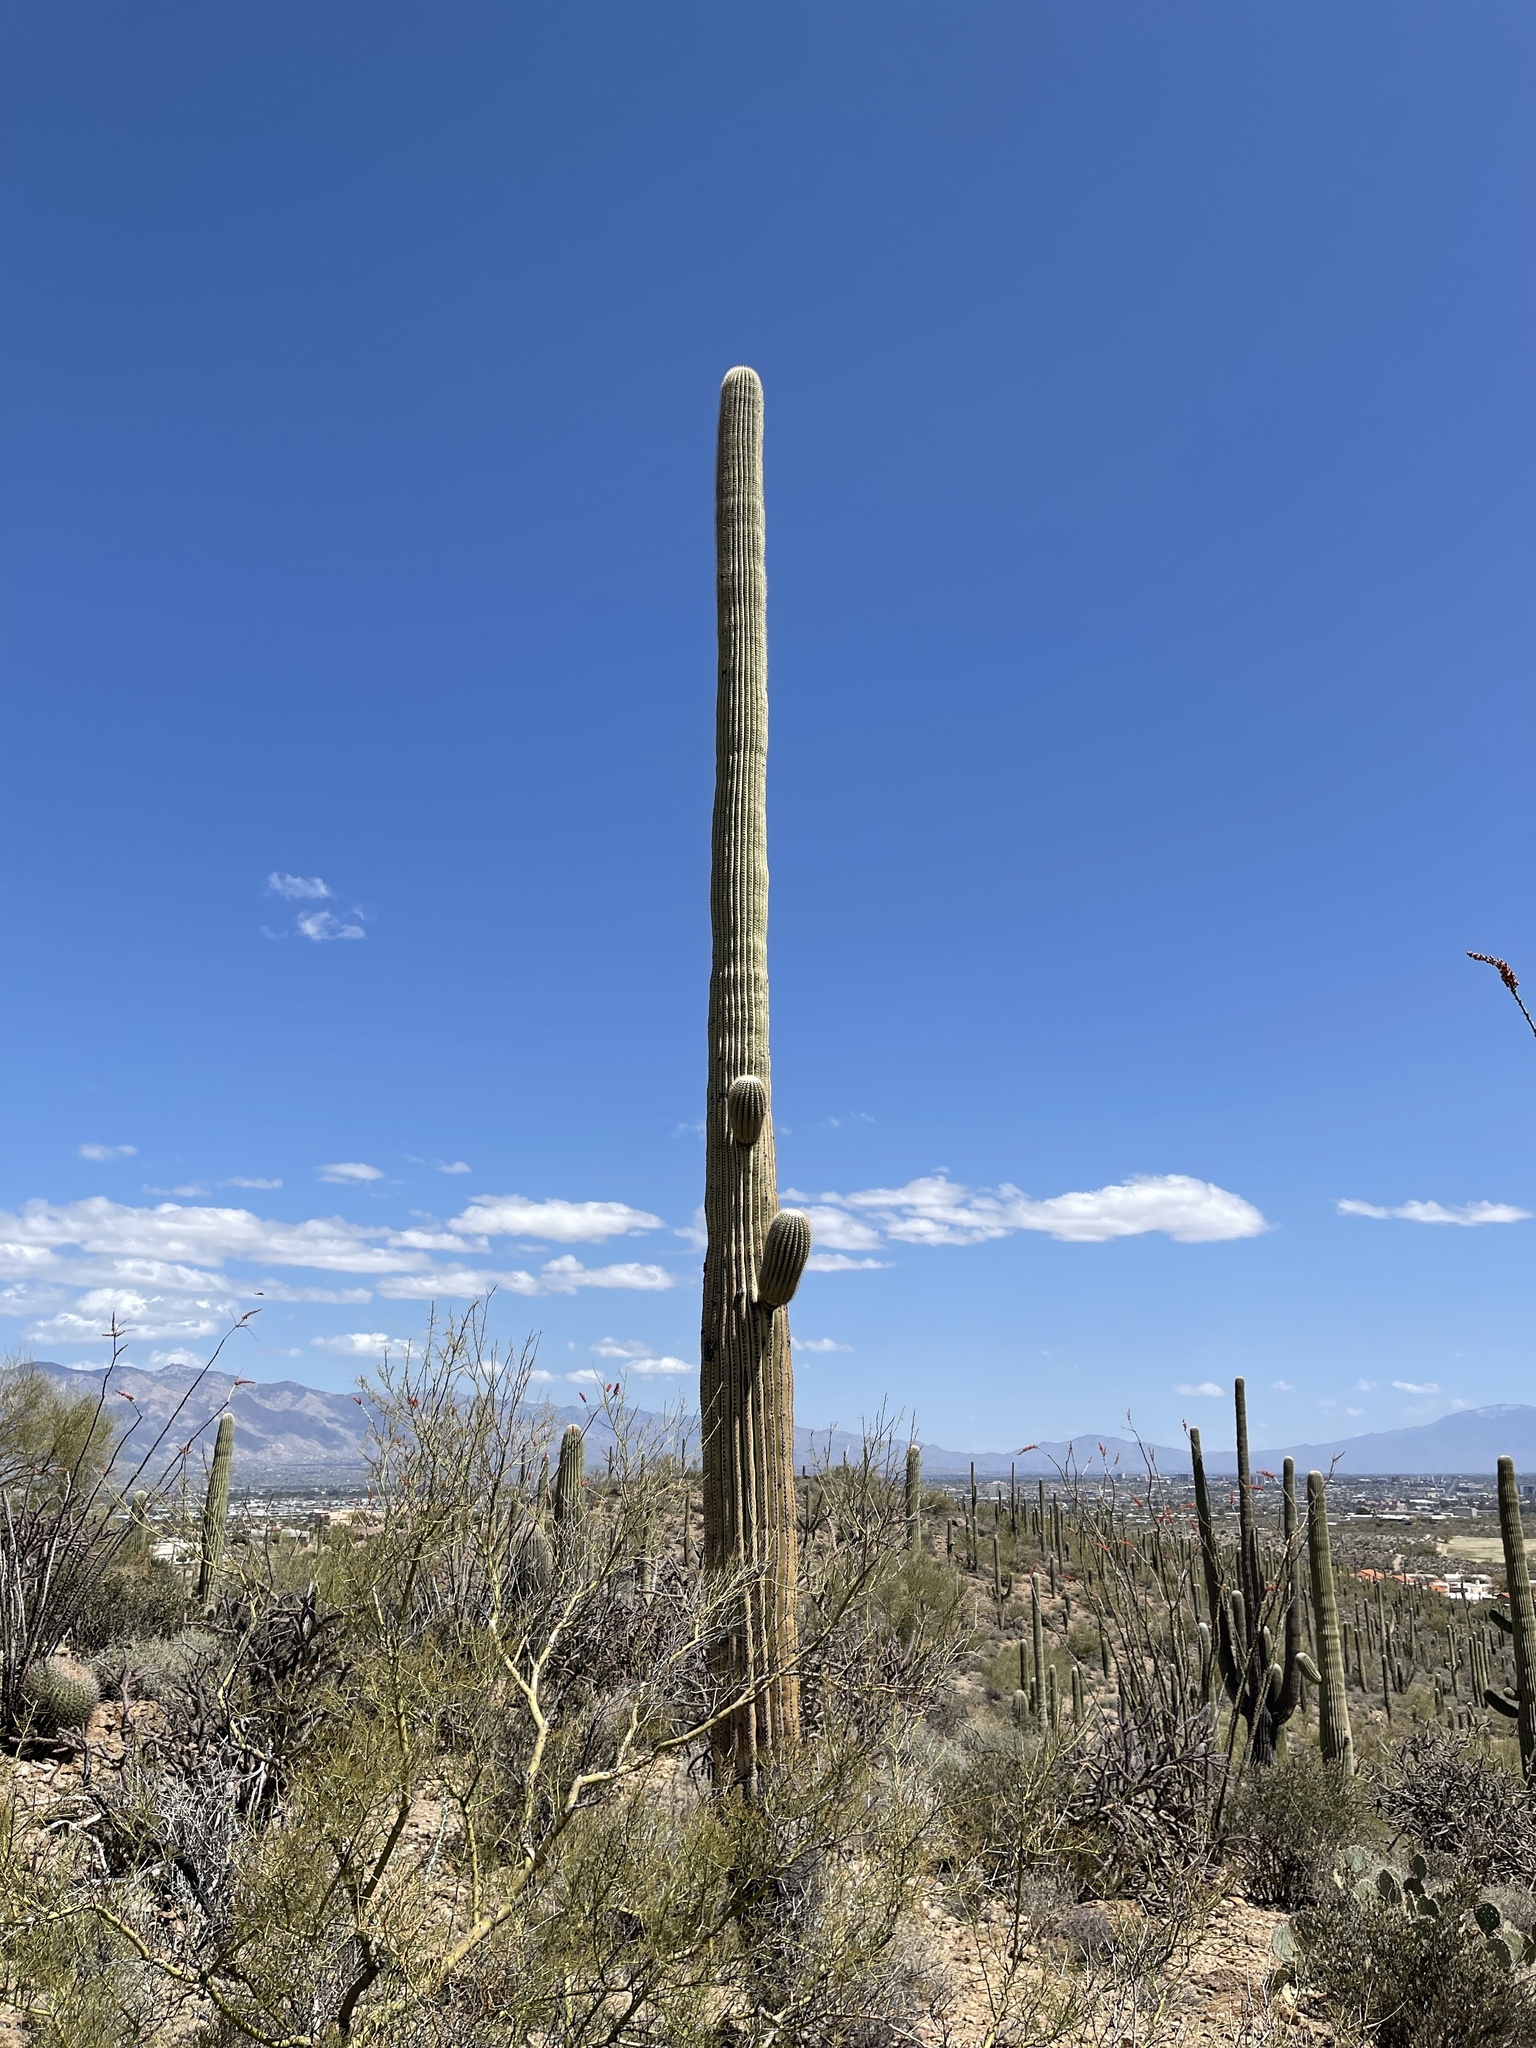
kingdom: Plantae
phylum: Tracheophyta
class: Magnoliopsida
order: Caryophyllales
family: Cactaceae
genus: Carnegiea
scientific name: Carnegiea gigantea
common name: Saguaro
